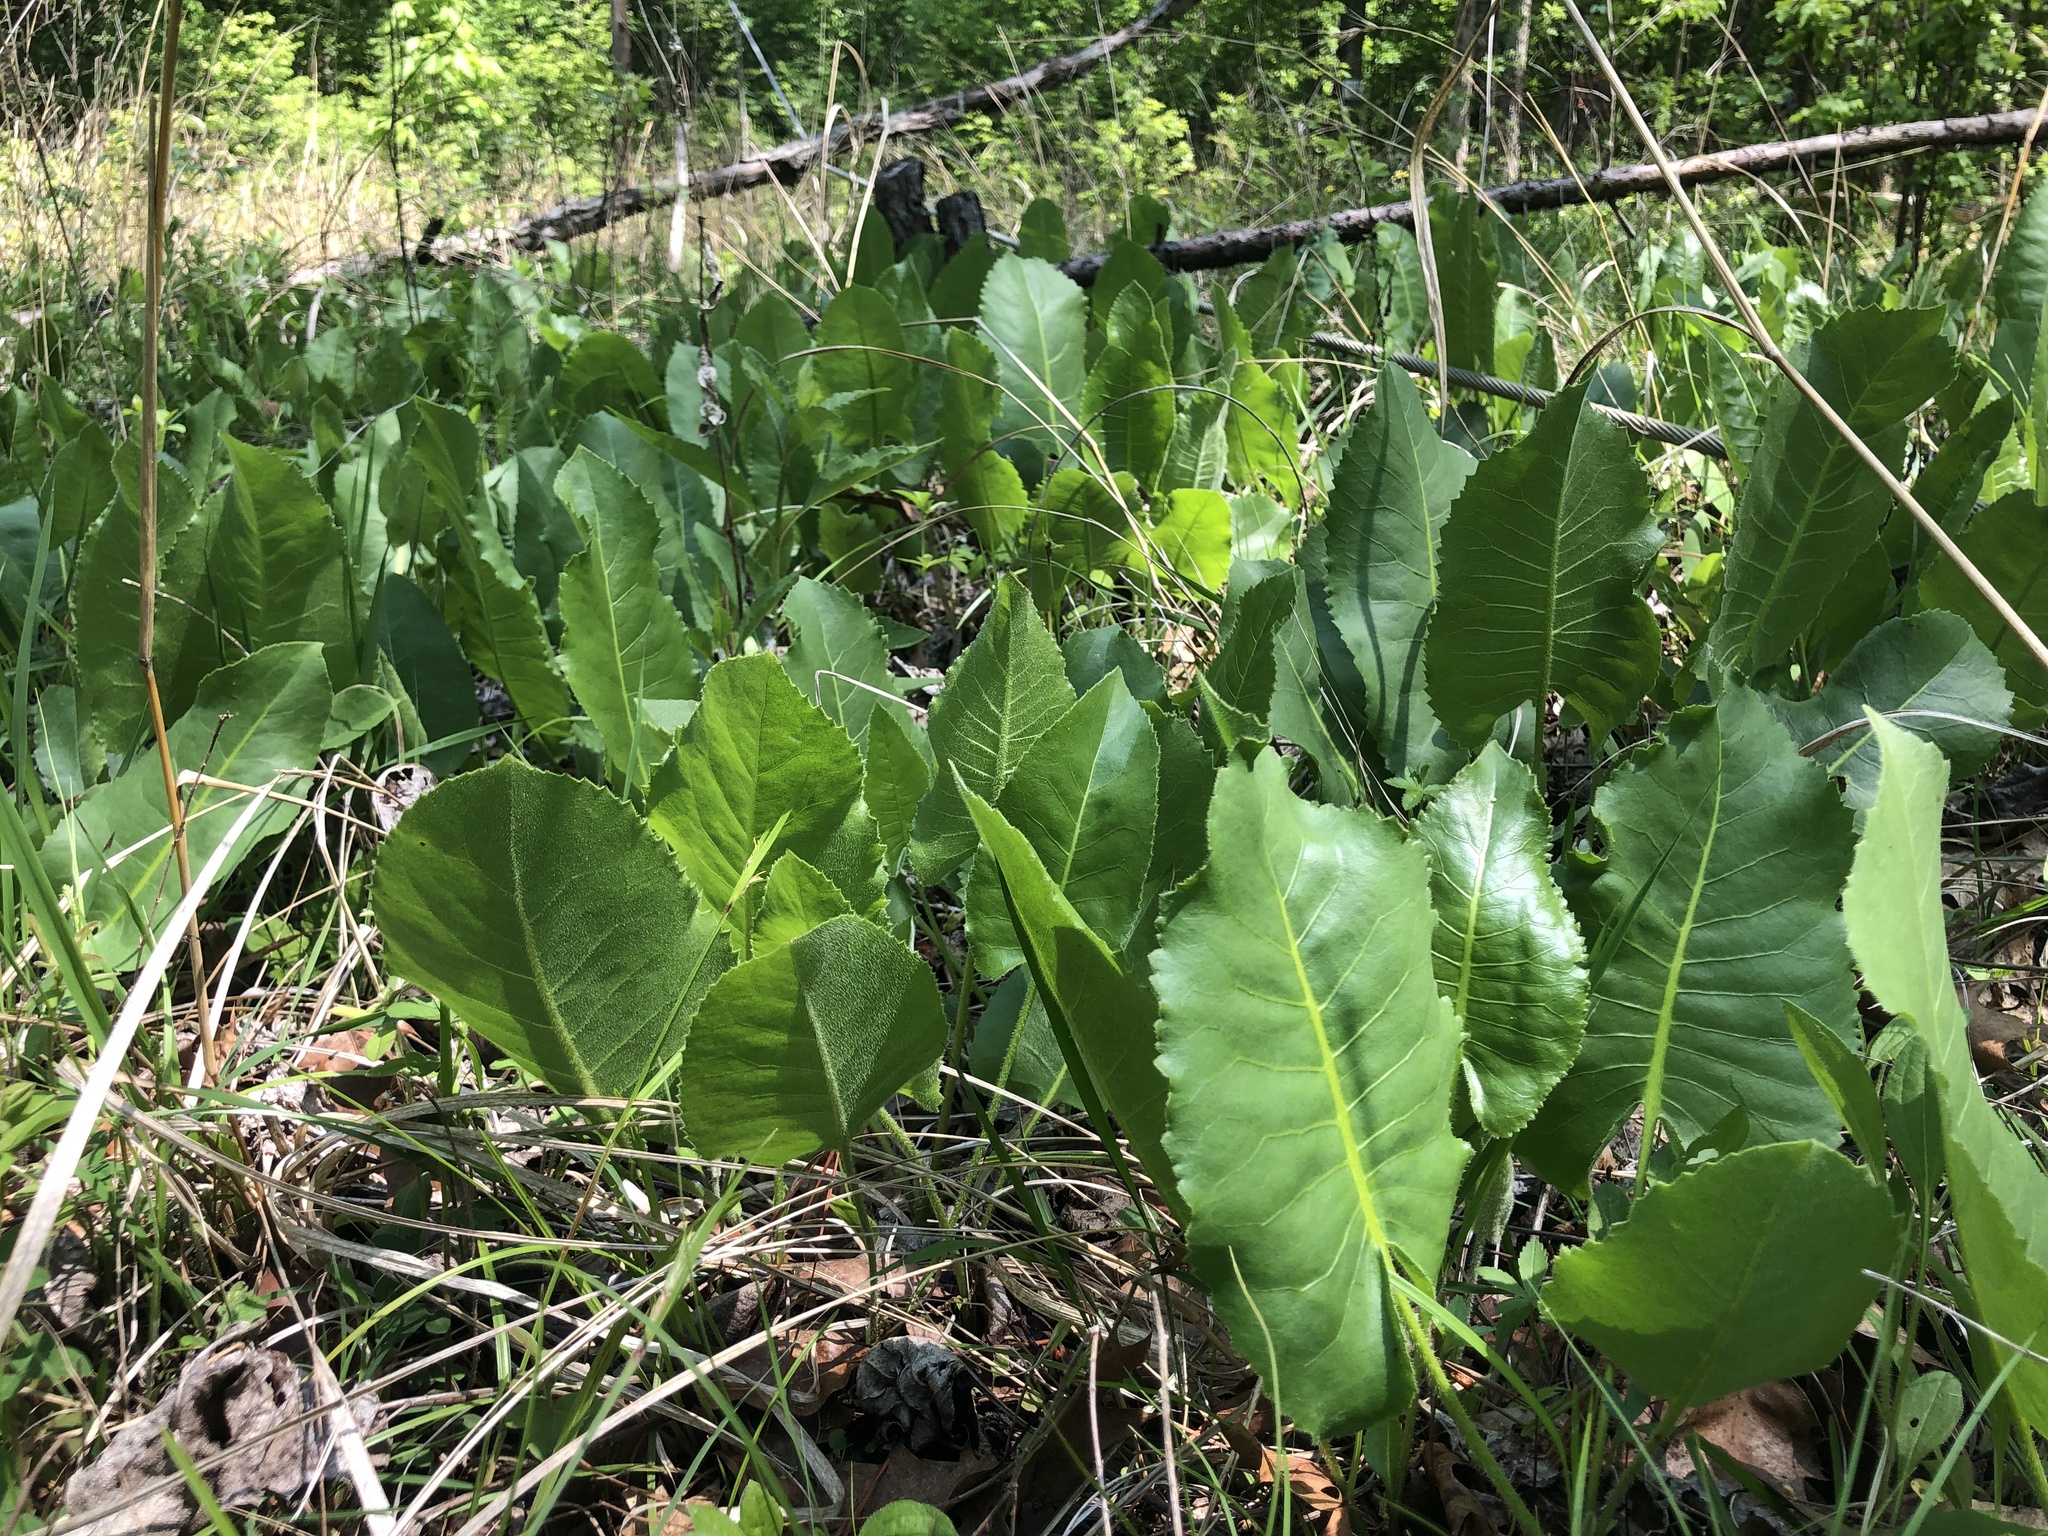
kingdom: Plantae
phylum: Tracheophyta
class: Magnoliopsida
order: Asterales
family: Asteraceae
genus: Silphium
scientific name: Silphium terebinthinaceum
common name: Basal-leaf rosinweed
